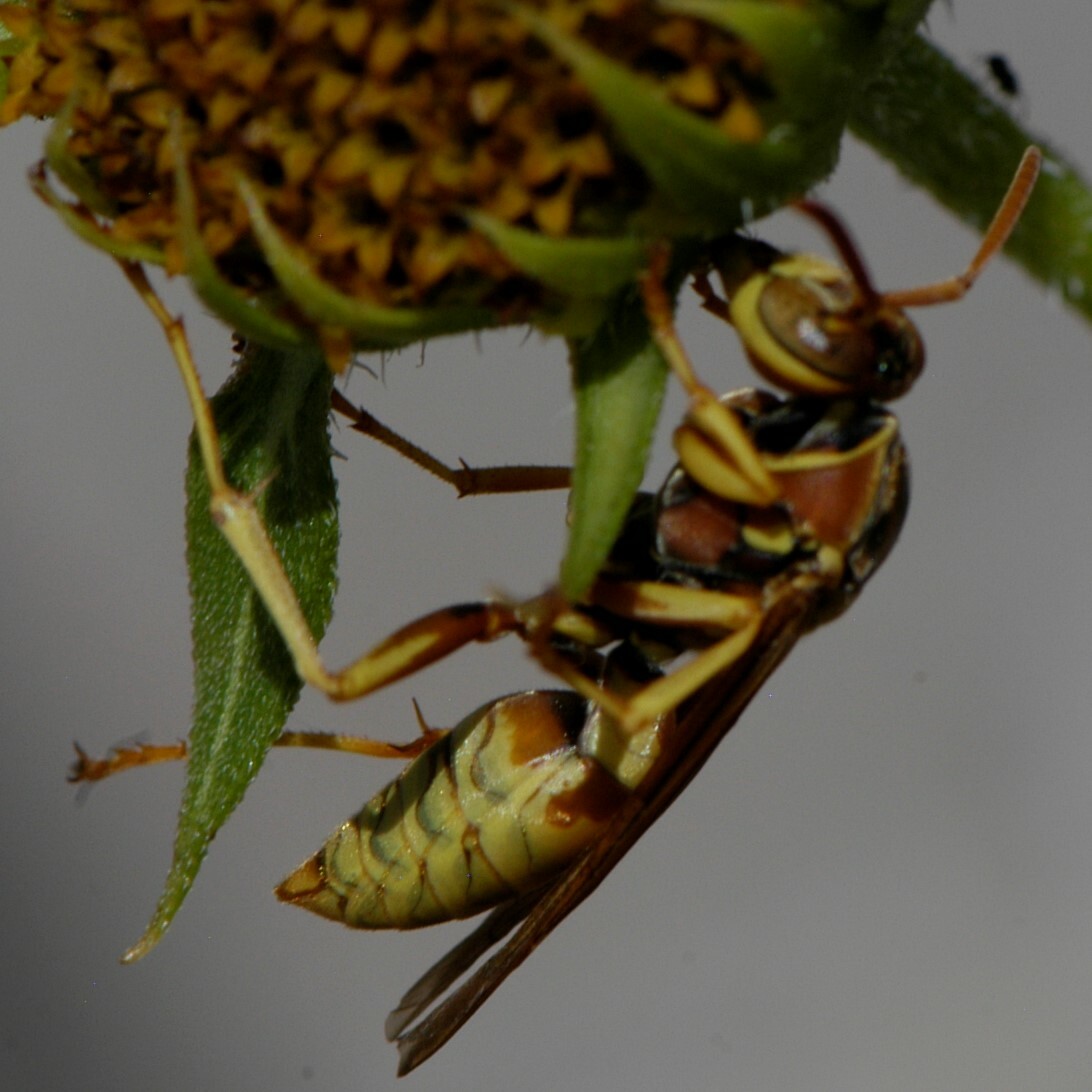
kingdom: Animalia
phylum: Arthropoda
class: Insecta
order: Hymenoptera
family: Eumenidae
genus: Polistes
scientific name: Polistes aurifer
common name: Paper wasp
